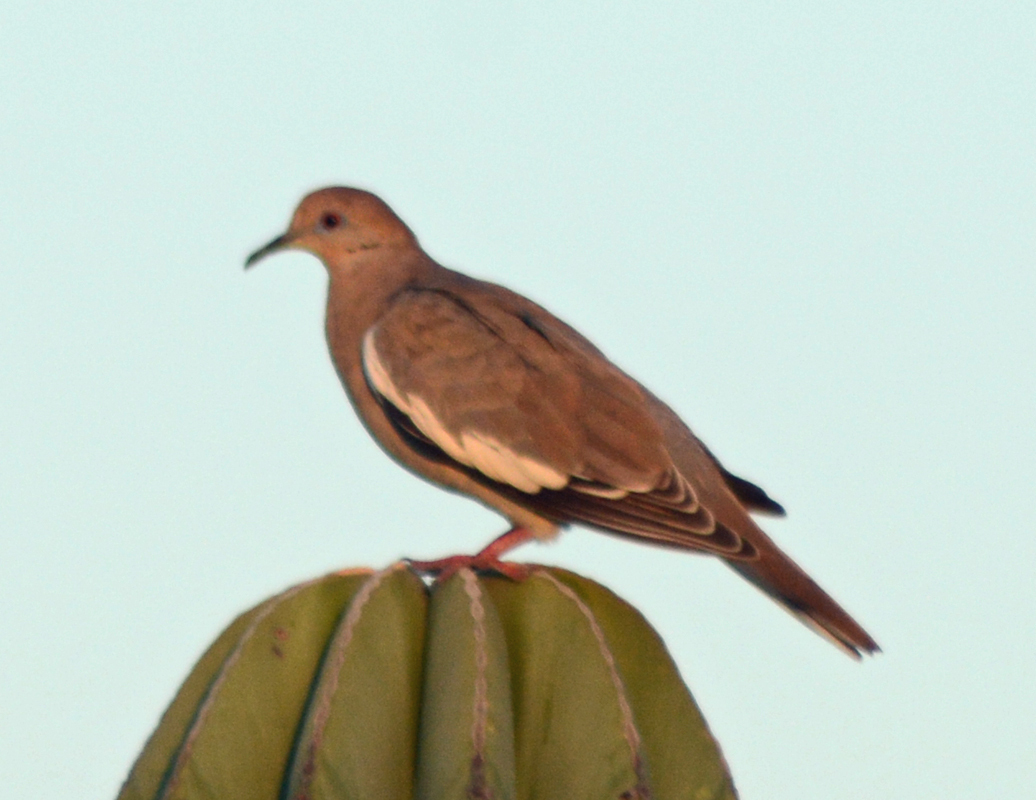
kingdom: Animalia
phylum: Chordata
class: Aves
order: Columbiformes
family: Columbidae
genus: Zenaida
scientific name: Zenaida asiatica
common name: White-winged dove
